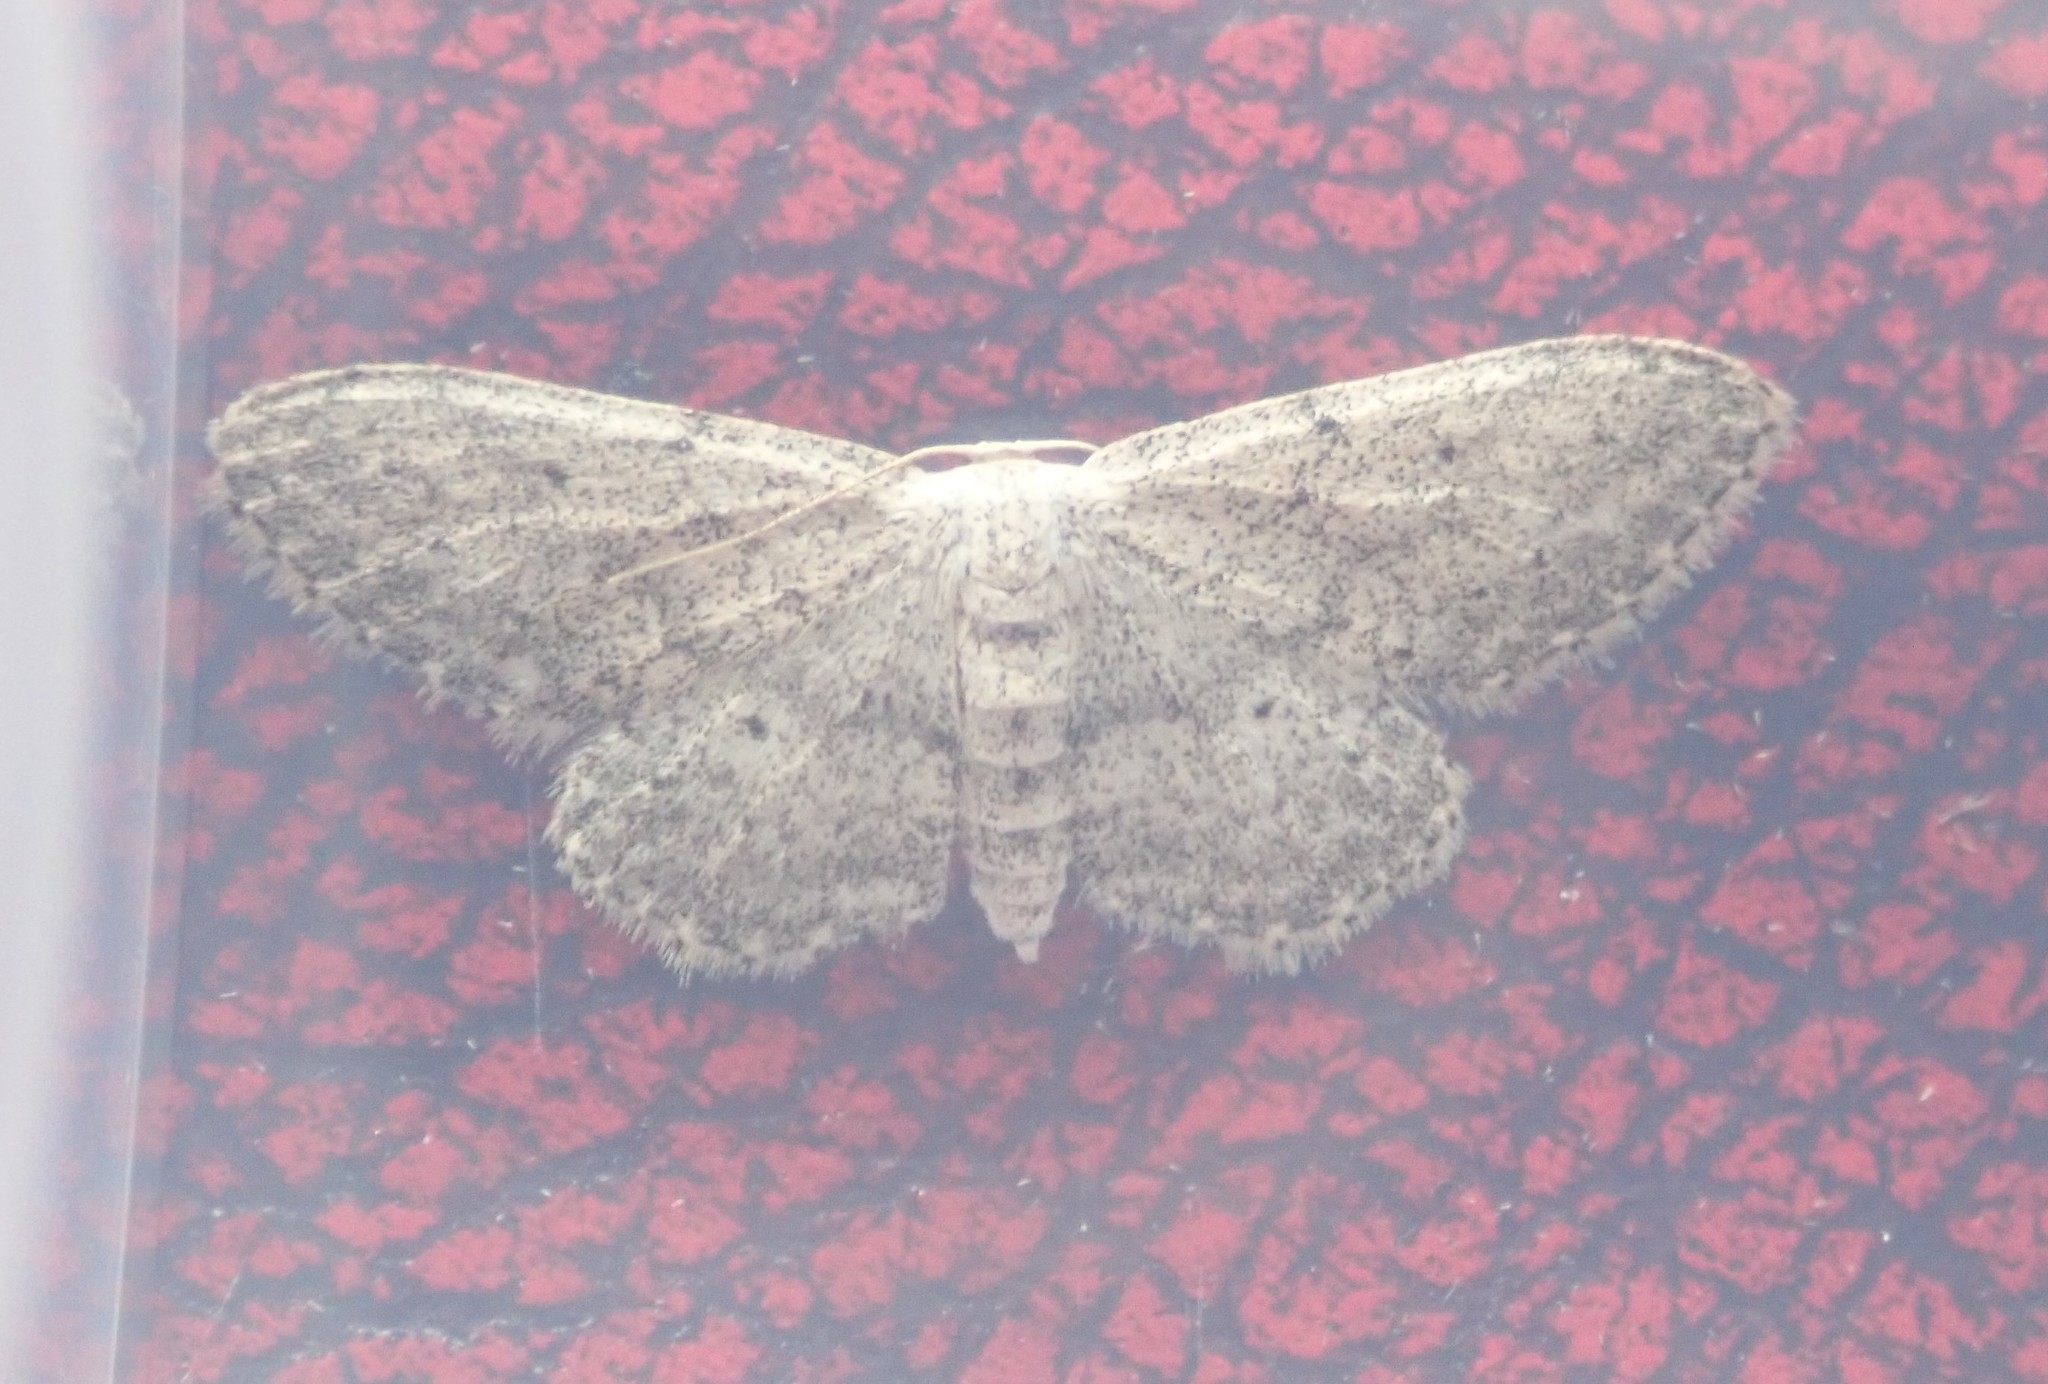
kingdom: Animalia
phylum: Arthropoda
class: Insecta
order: Lepidoptera
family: Geometridae
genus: Idaea
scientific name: Idaea seriata
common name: Small dusty wave
